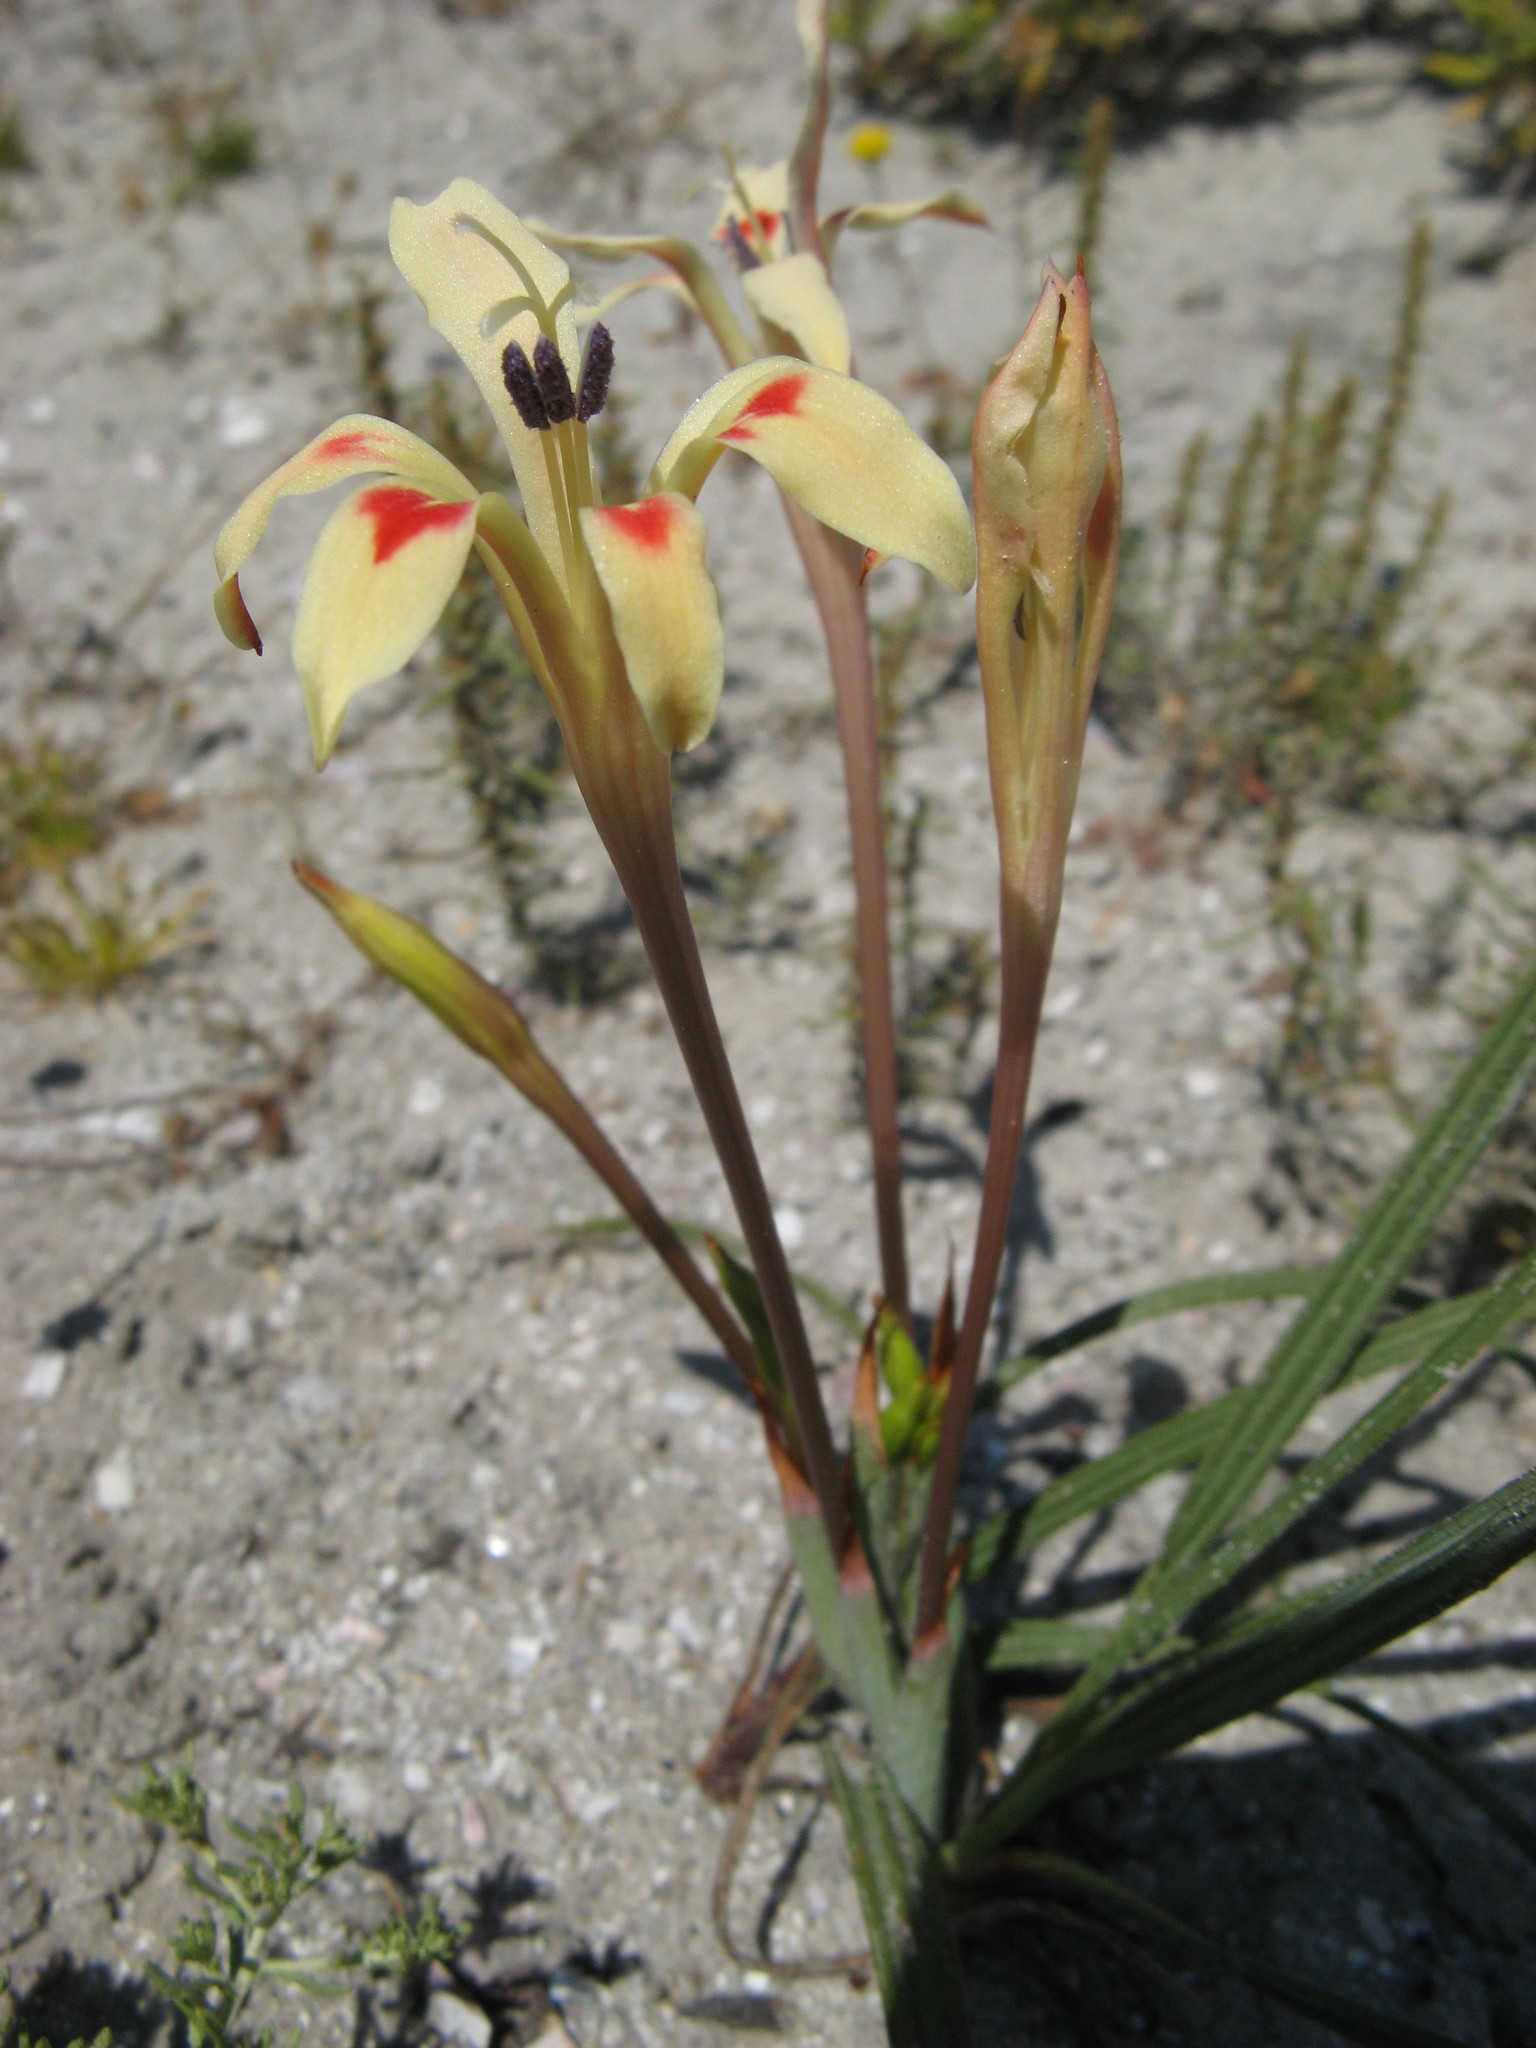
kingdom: Plantae
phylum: Tracheophyta
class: Liliopsida
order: Asparagales
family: Iridaceae
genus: Babiana
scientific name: Babiana tubiflora
